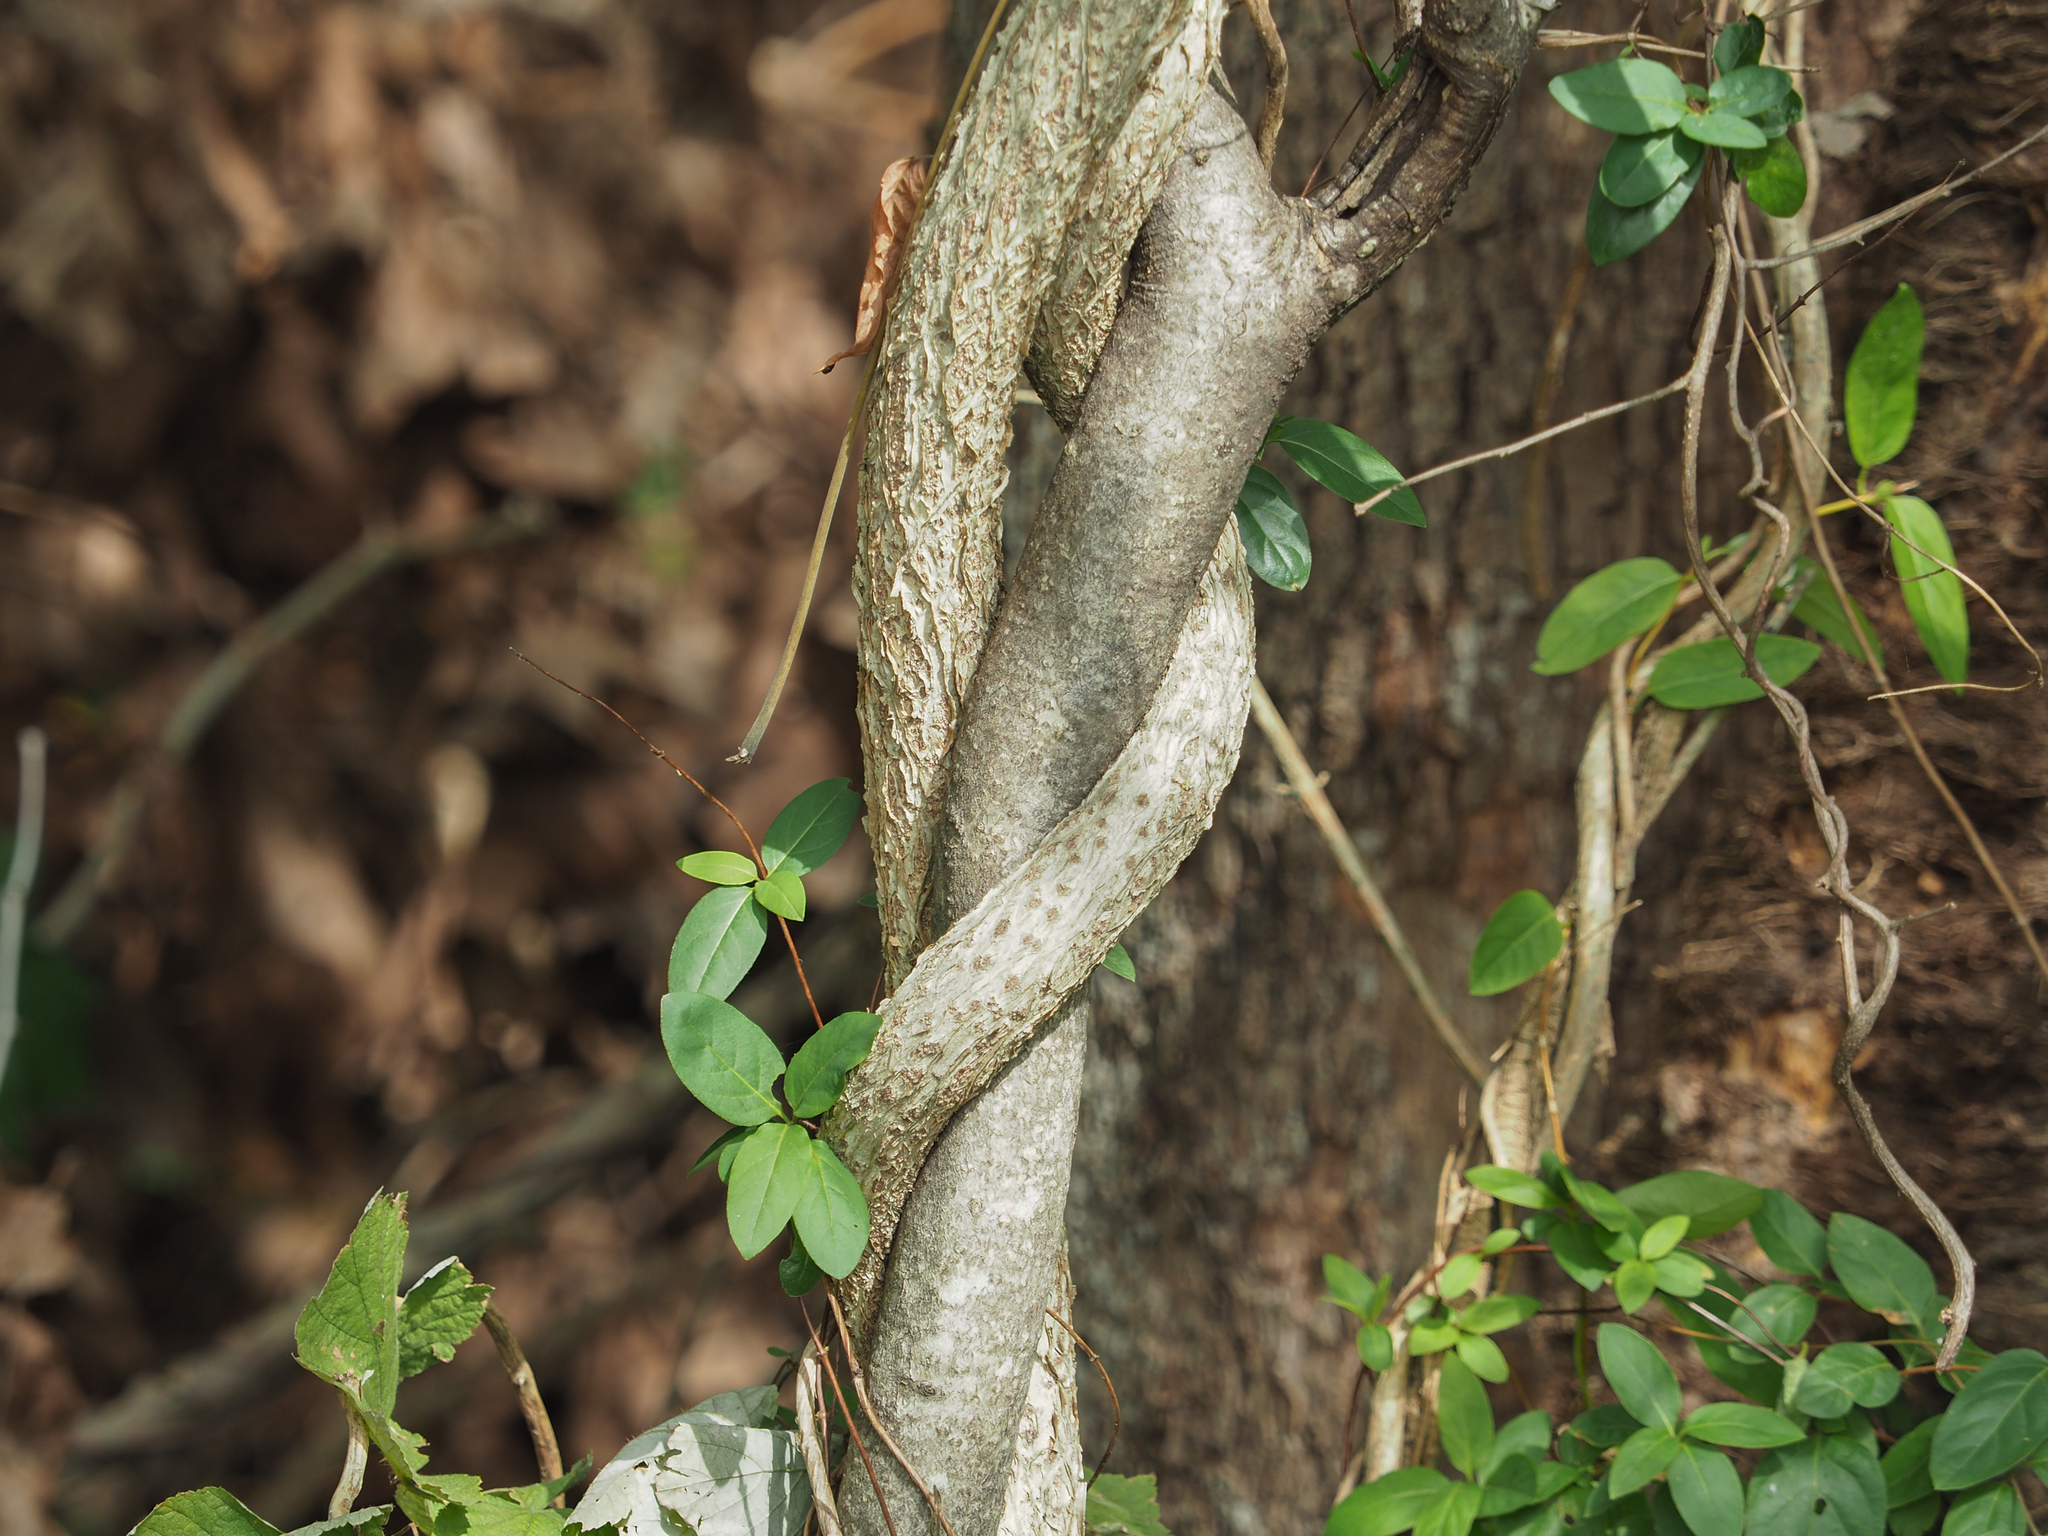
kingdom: Plantae
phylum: Tracheophyta
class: Magnoliopsida
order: Celastrales
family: Celastraceae
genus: Celastrus
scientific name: Celastrus orbiculatus
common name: Oriental bittersweet
